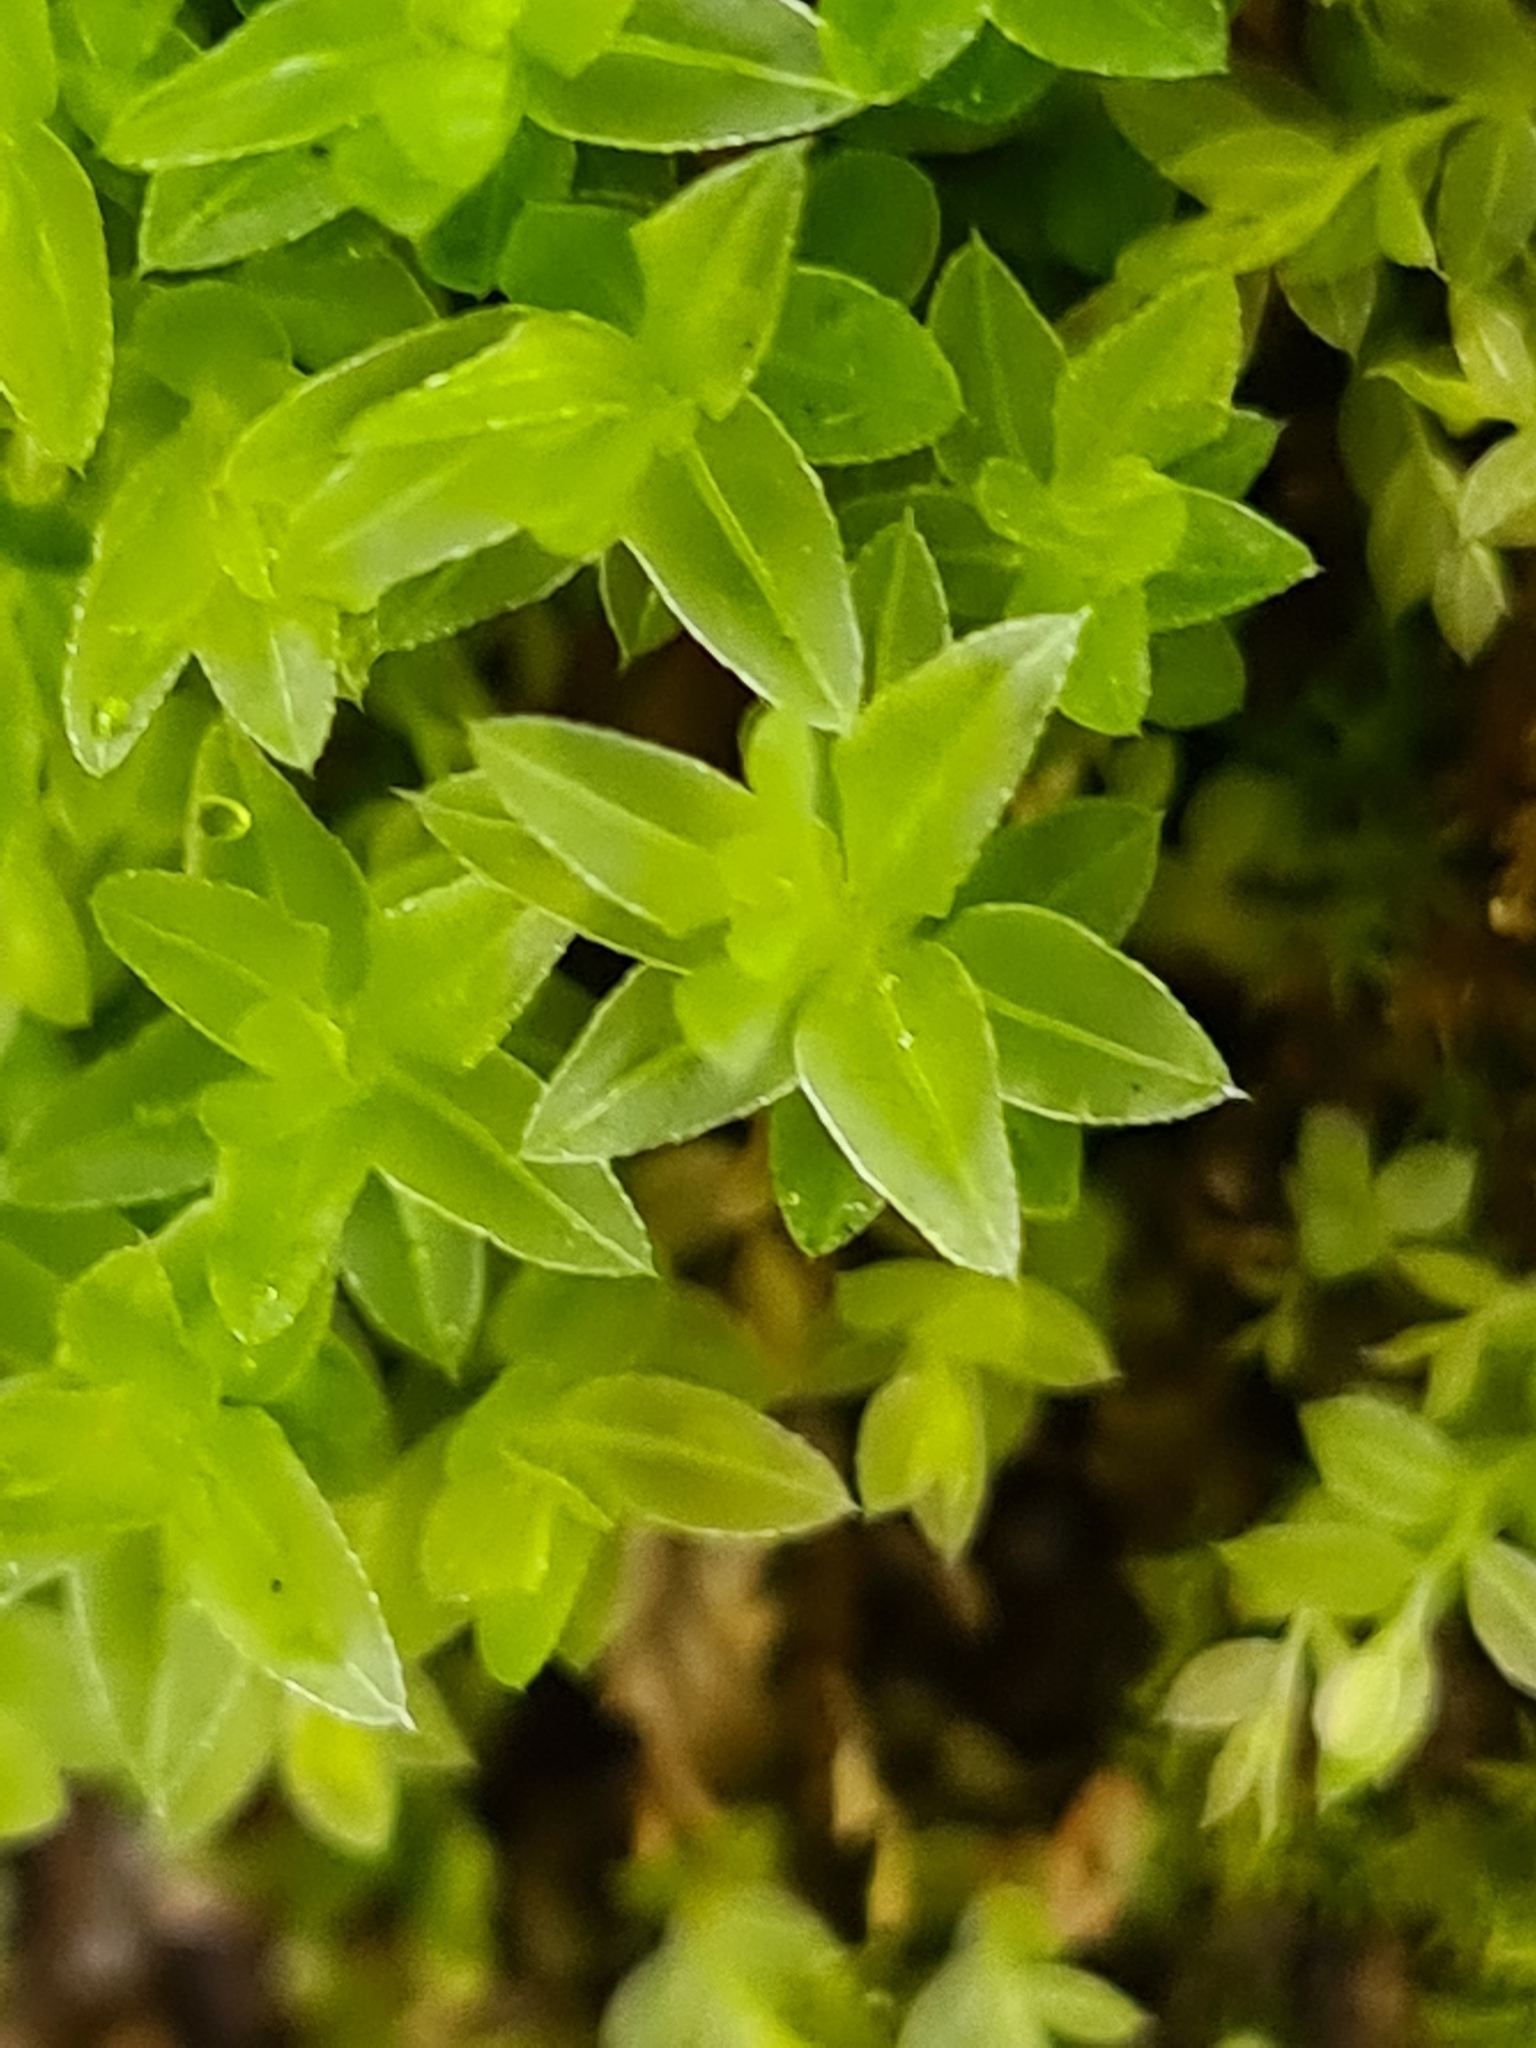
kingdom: Plantae
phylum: Bryophyta
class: Bryopsida
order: Bryales
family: Mniaceae
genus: Mnium
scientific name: Mnium marginatum
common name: Bordered leafy moss
